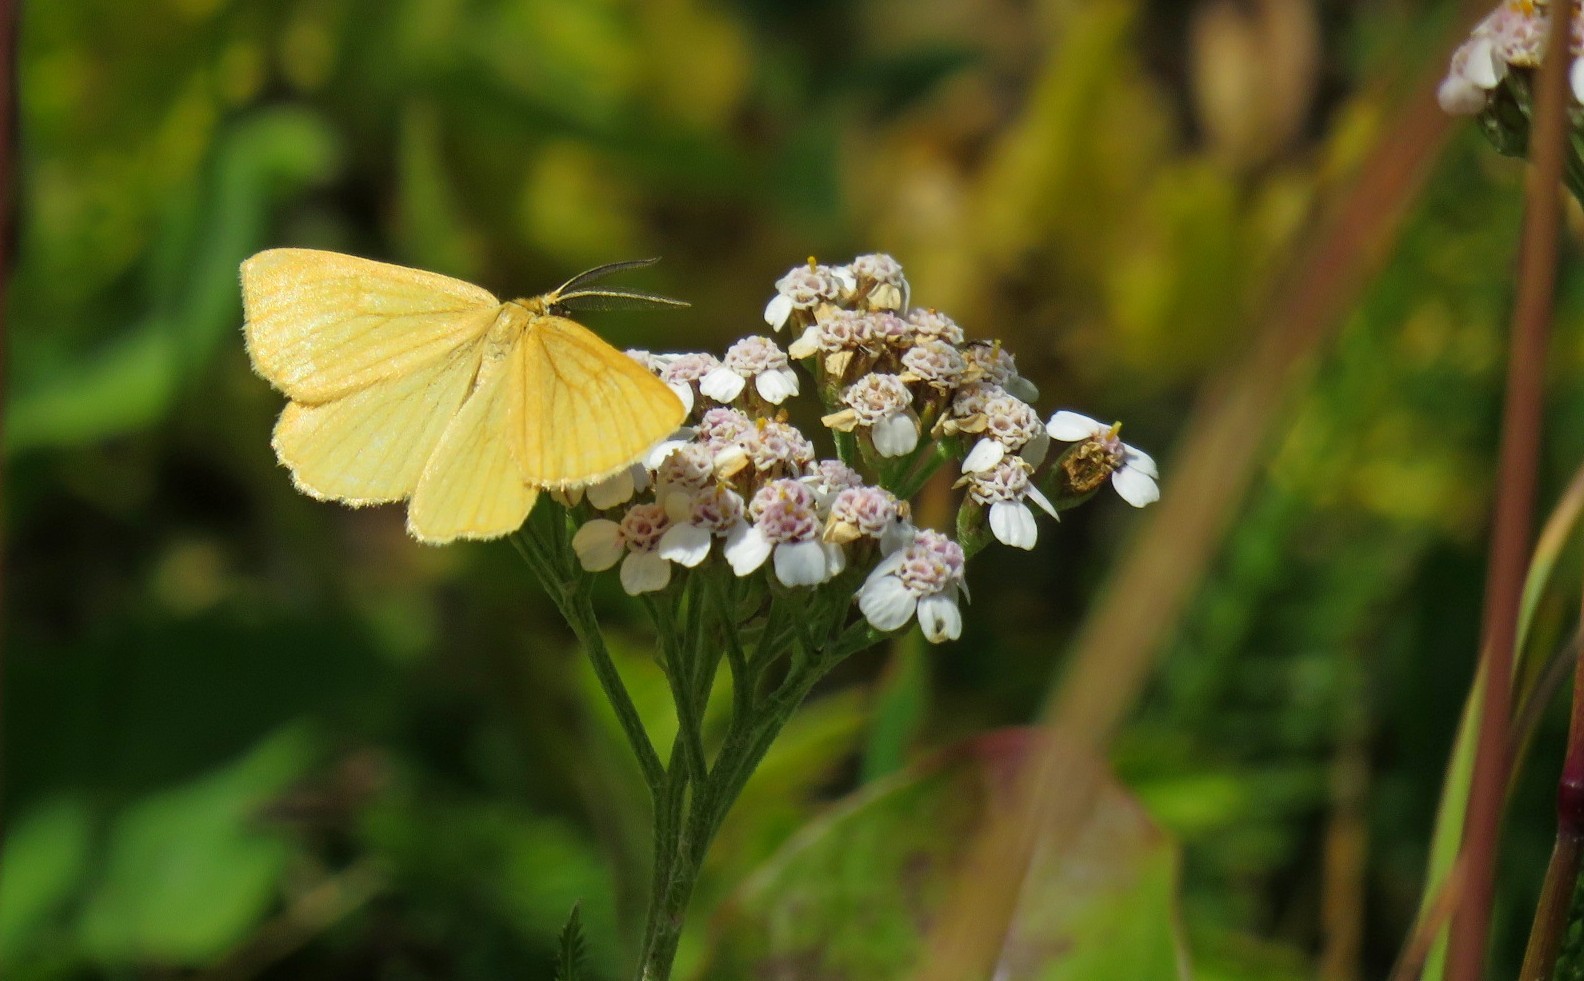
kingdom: Animalia
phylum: Arthropoda
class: Insecta
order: Lepidoptera
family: Geometridae
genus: Angerona
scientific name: Angerona prunaria
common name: Orange moth
